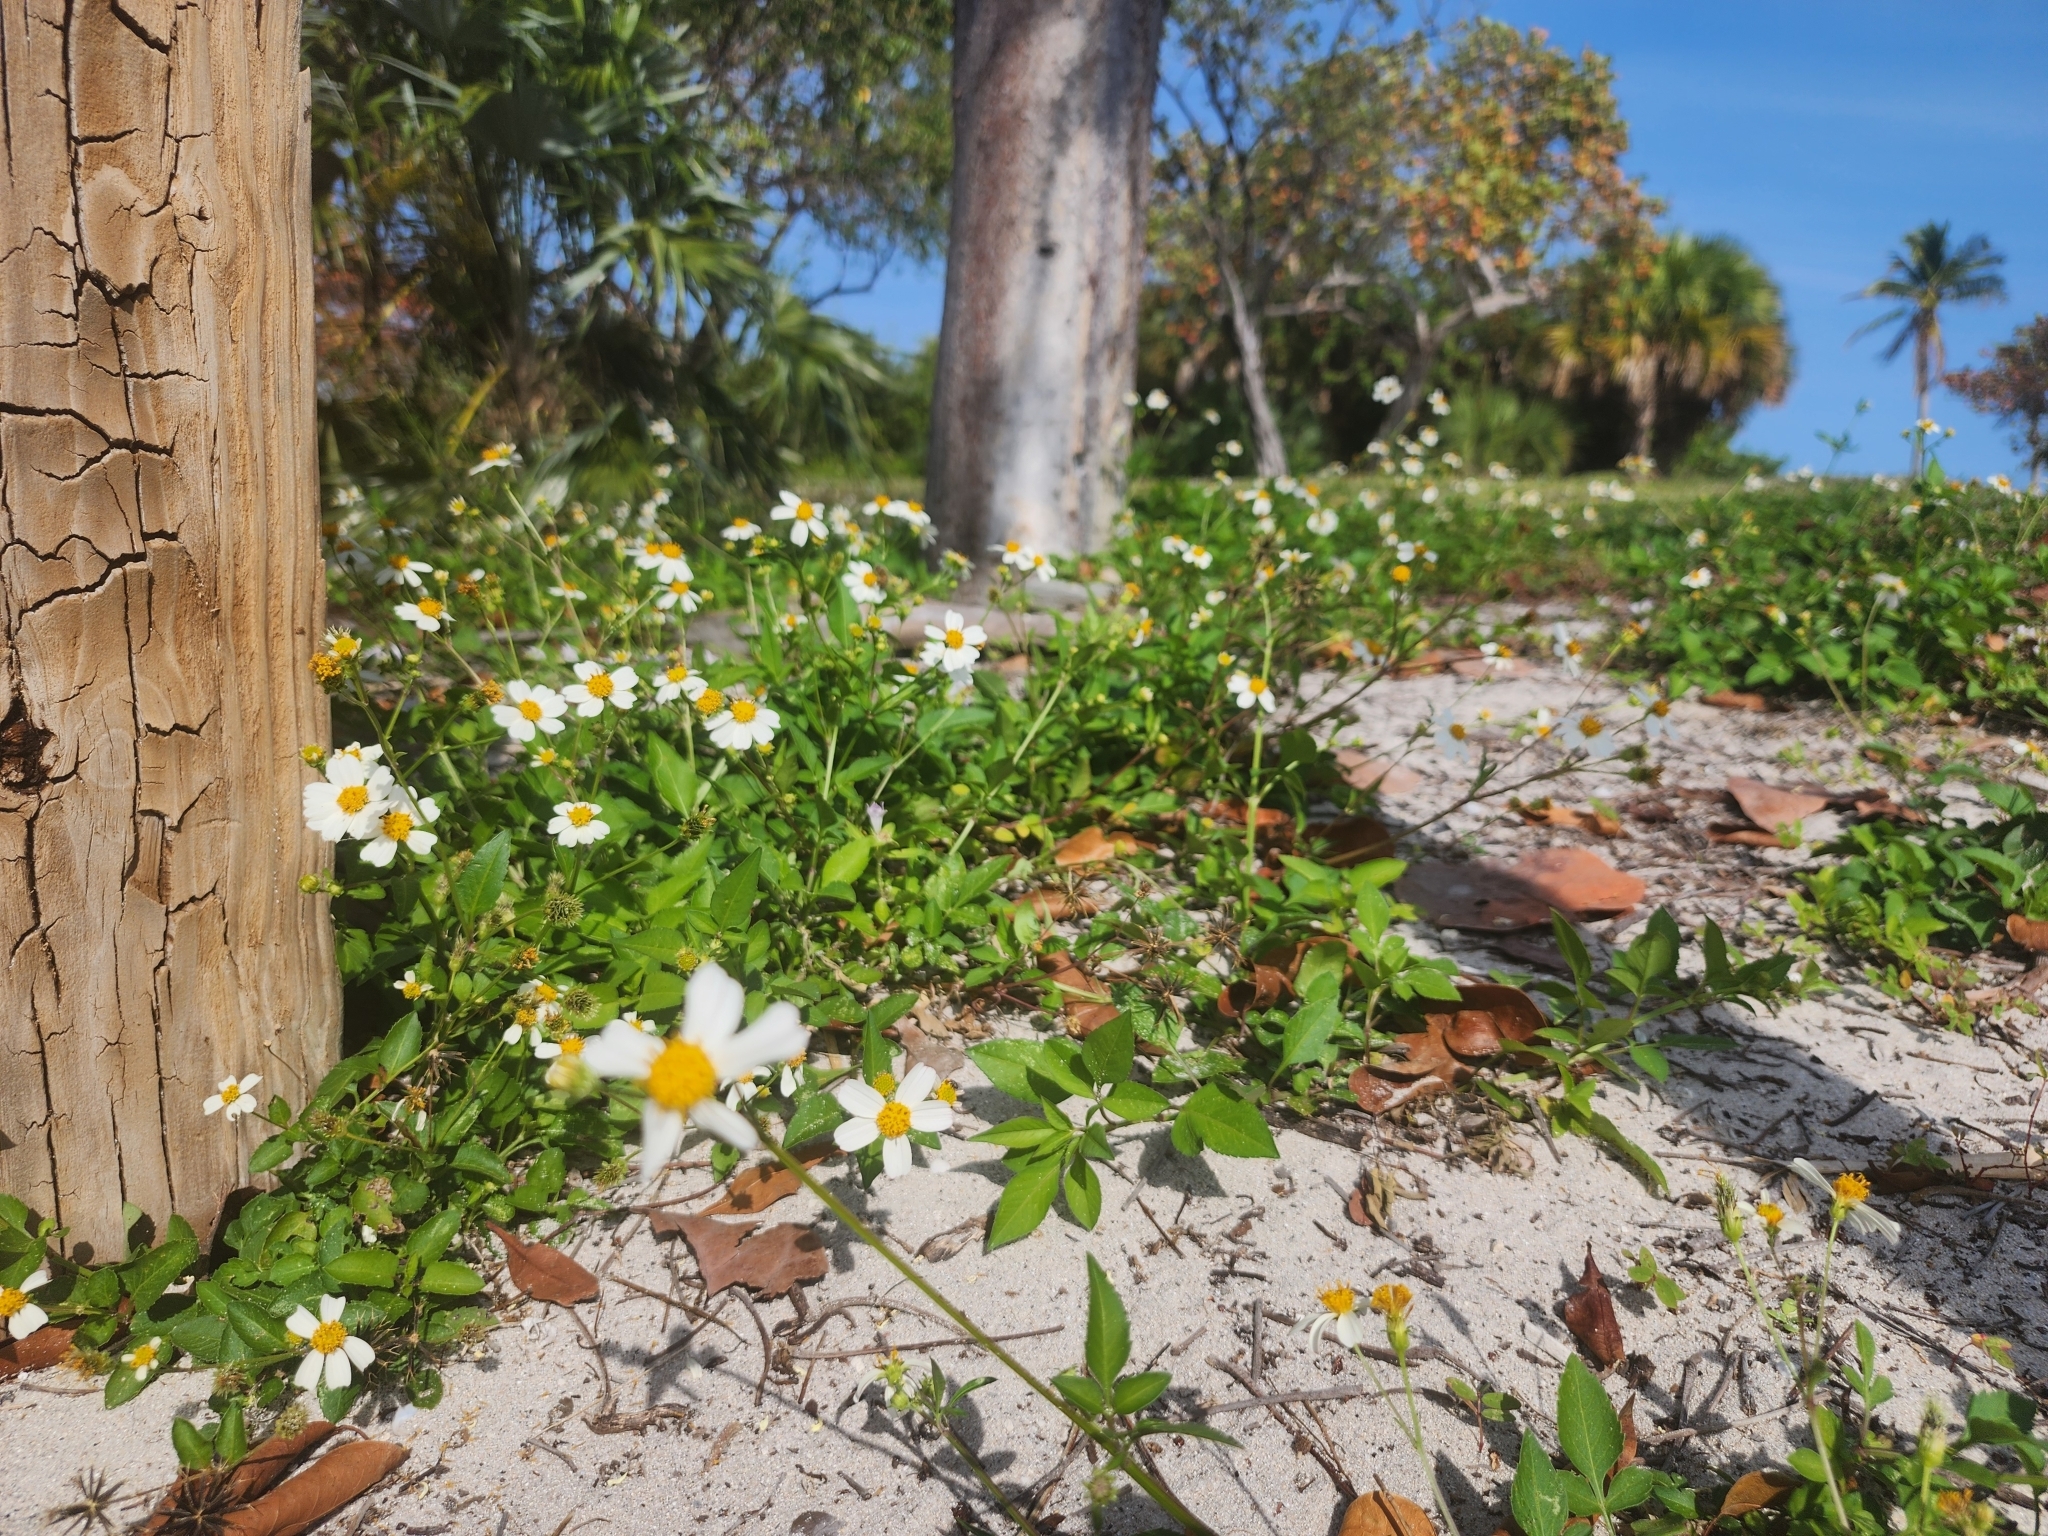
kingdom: Plantae
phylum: Tracheophyta
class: Magnoliopsida
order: Asterales
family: Asteraceae
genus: Bidens
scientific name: Bidens alba
